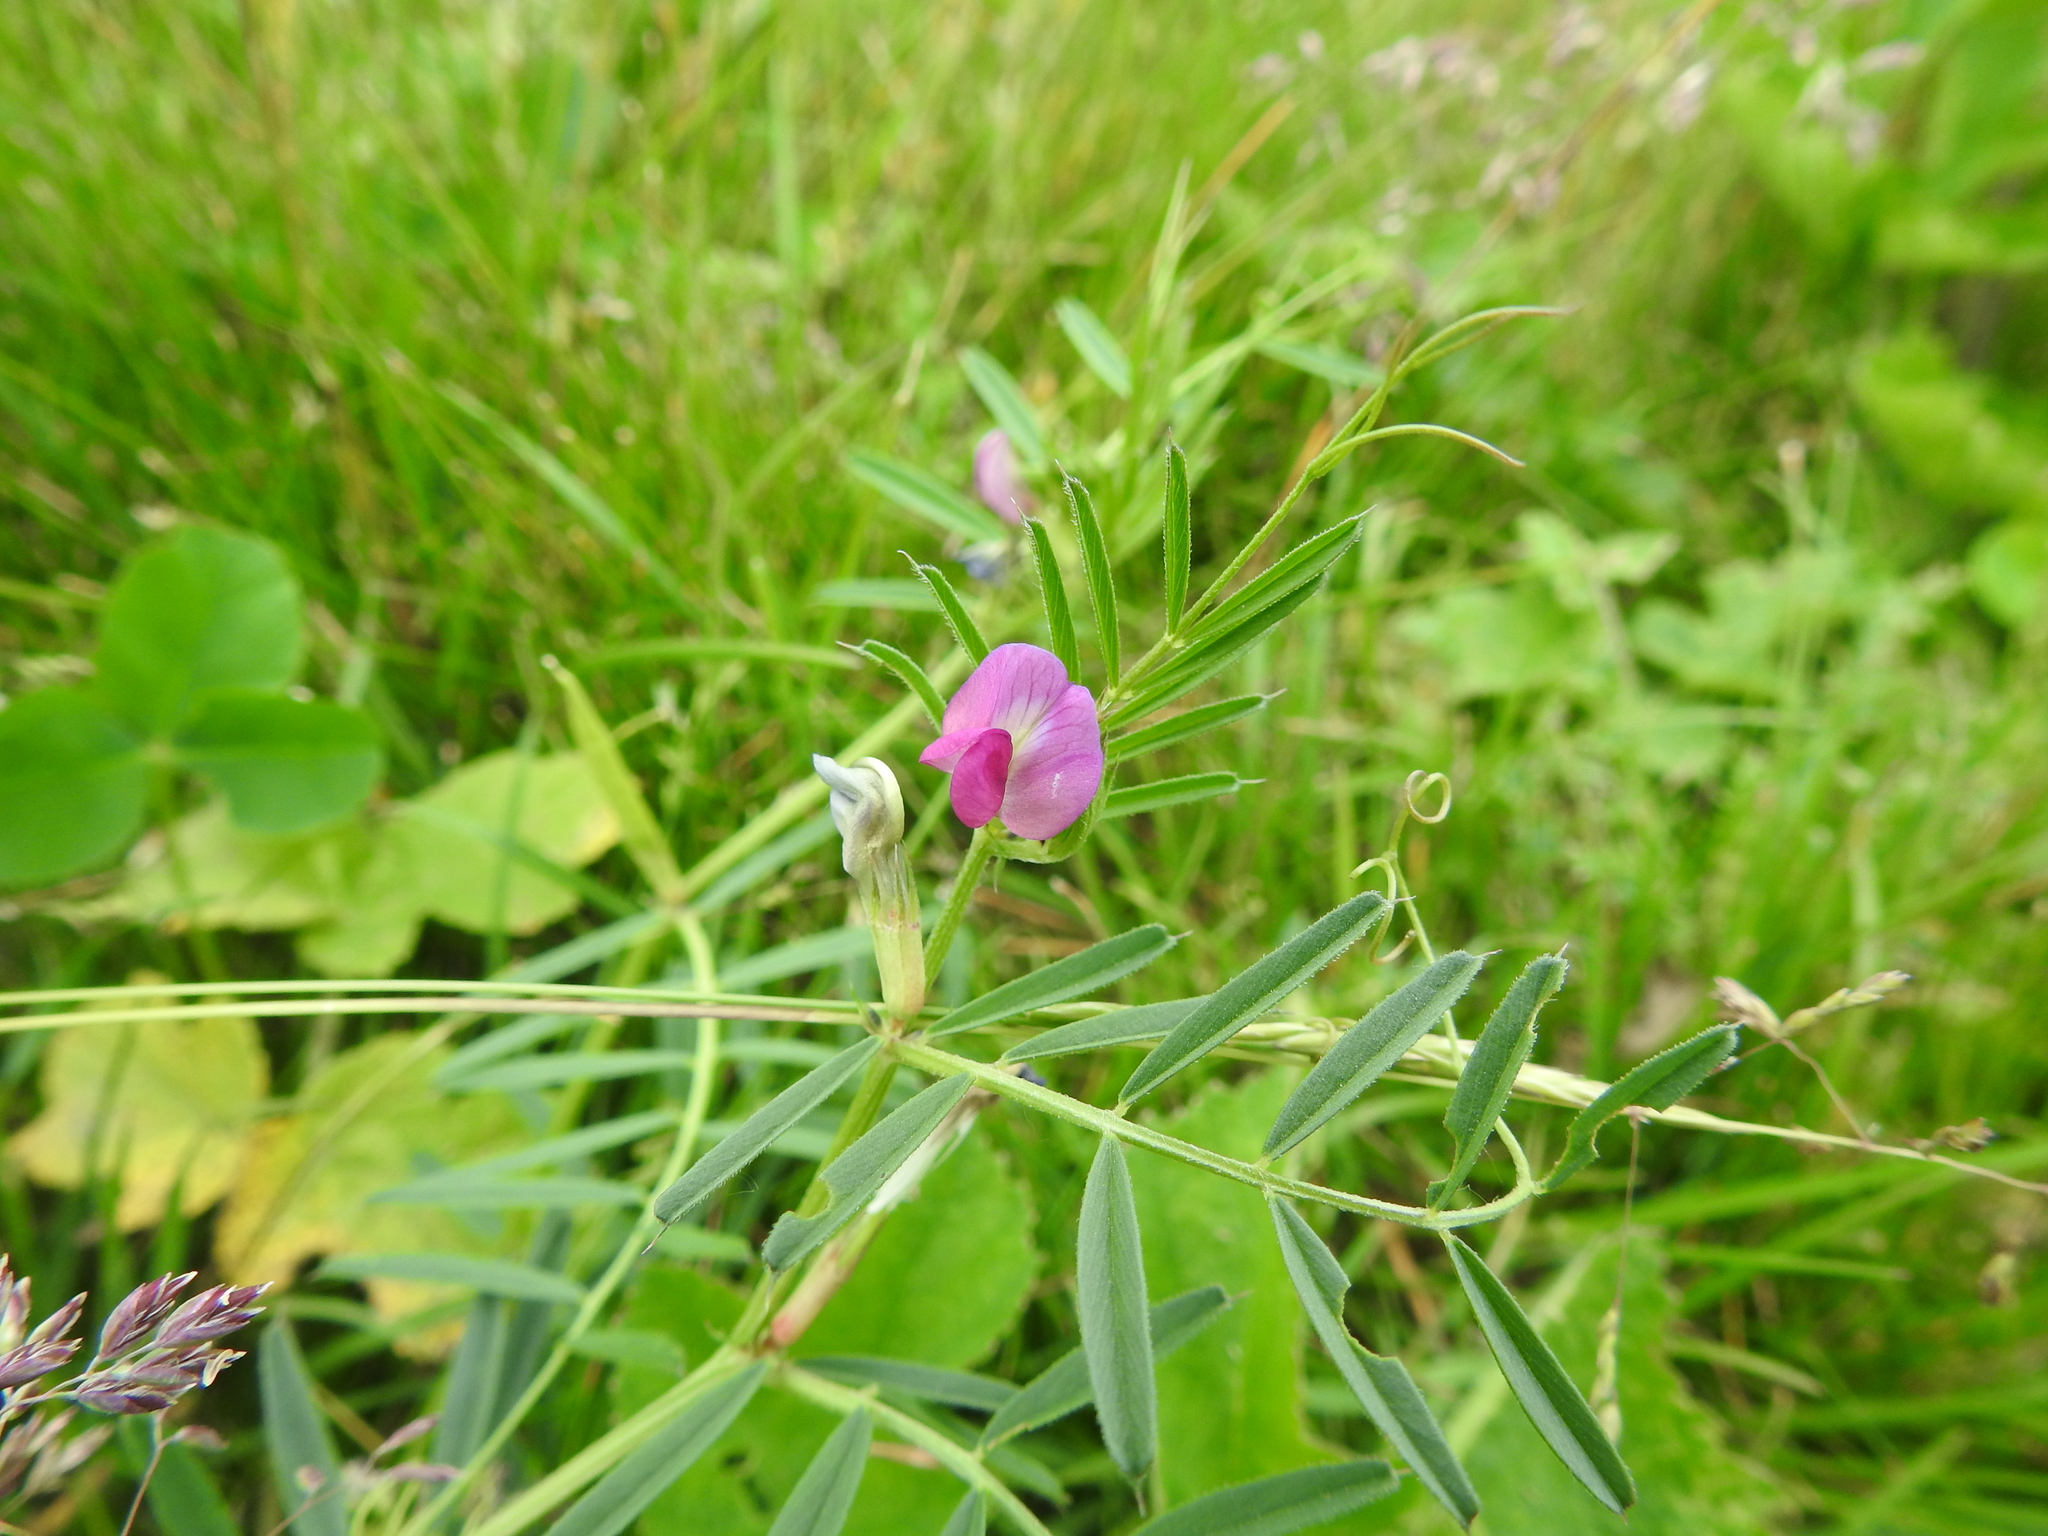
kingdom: Plantae
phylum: Tracheophyta
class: Magnoliopsida
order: Fabales
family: Fabaceae
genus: Vicia
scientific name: Vicia sativa
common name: Garden vetch
